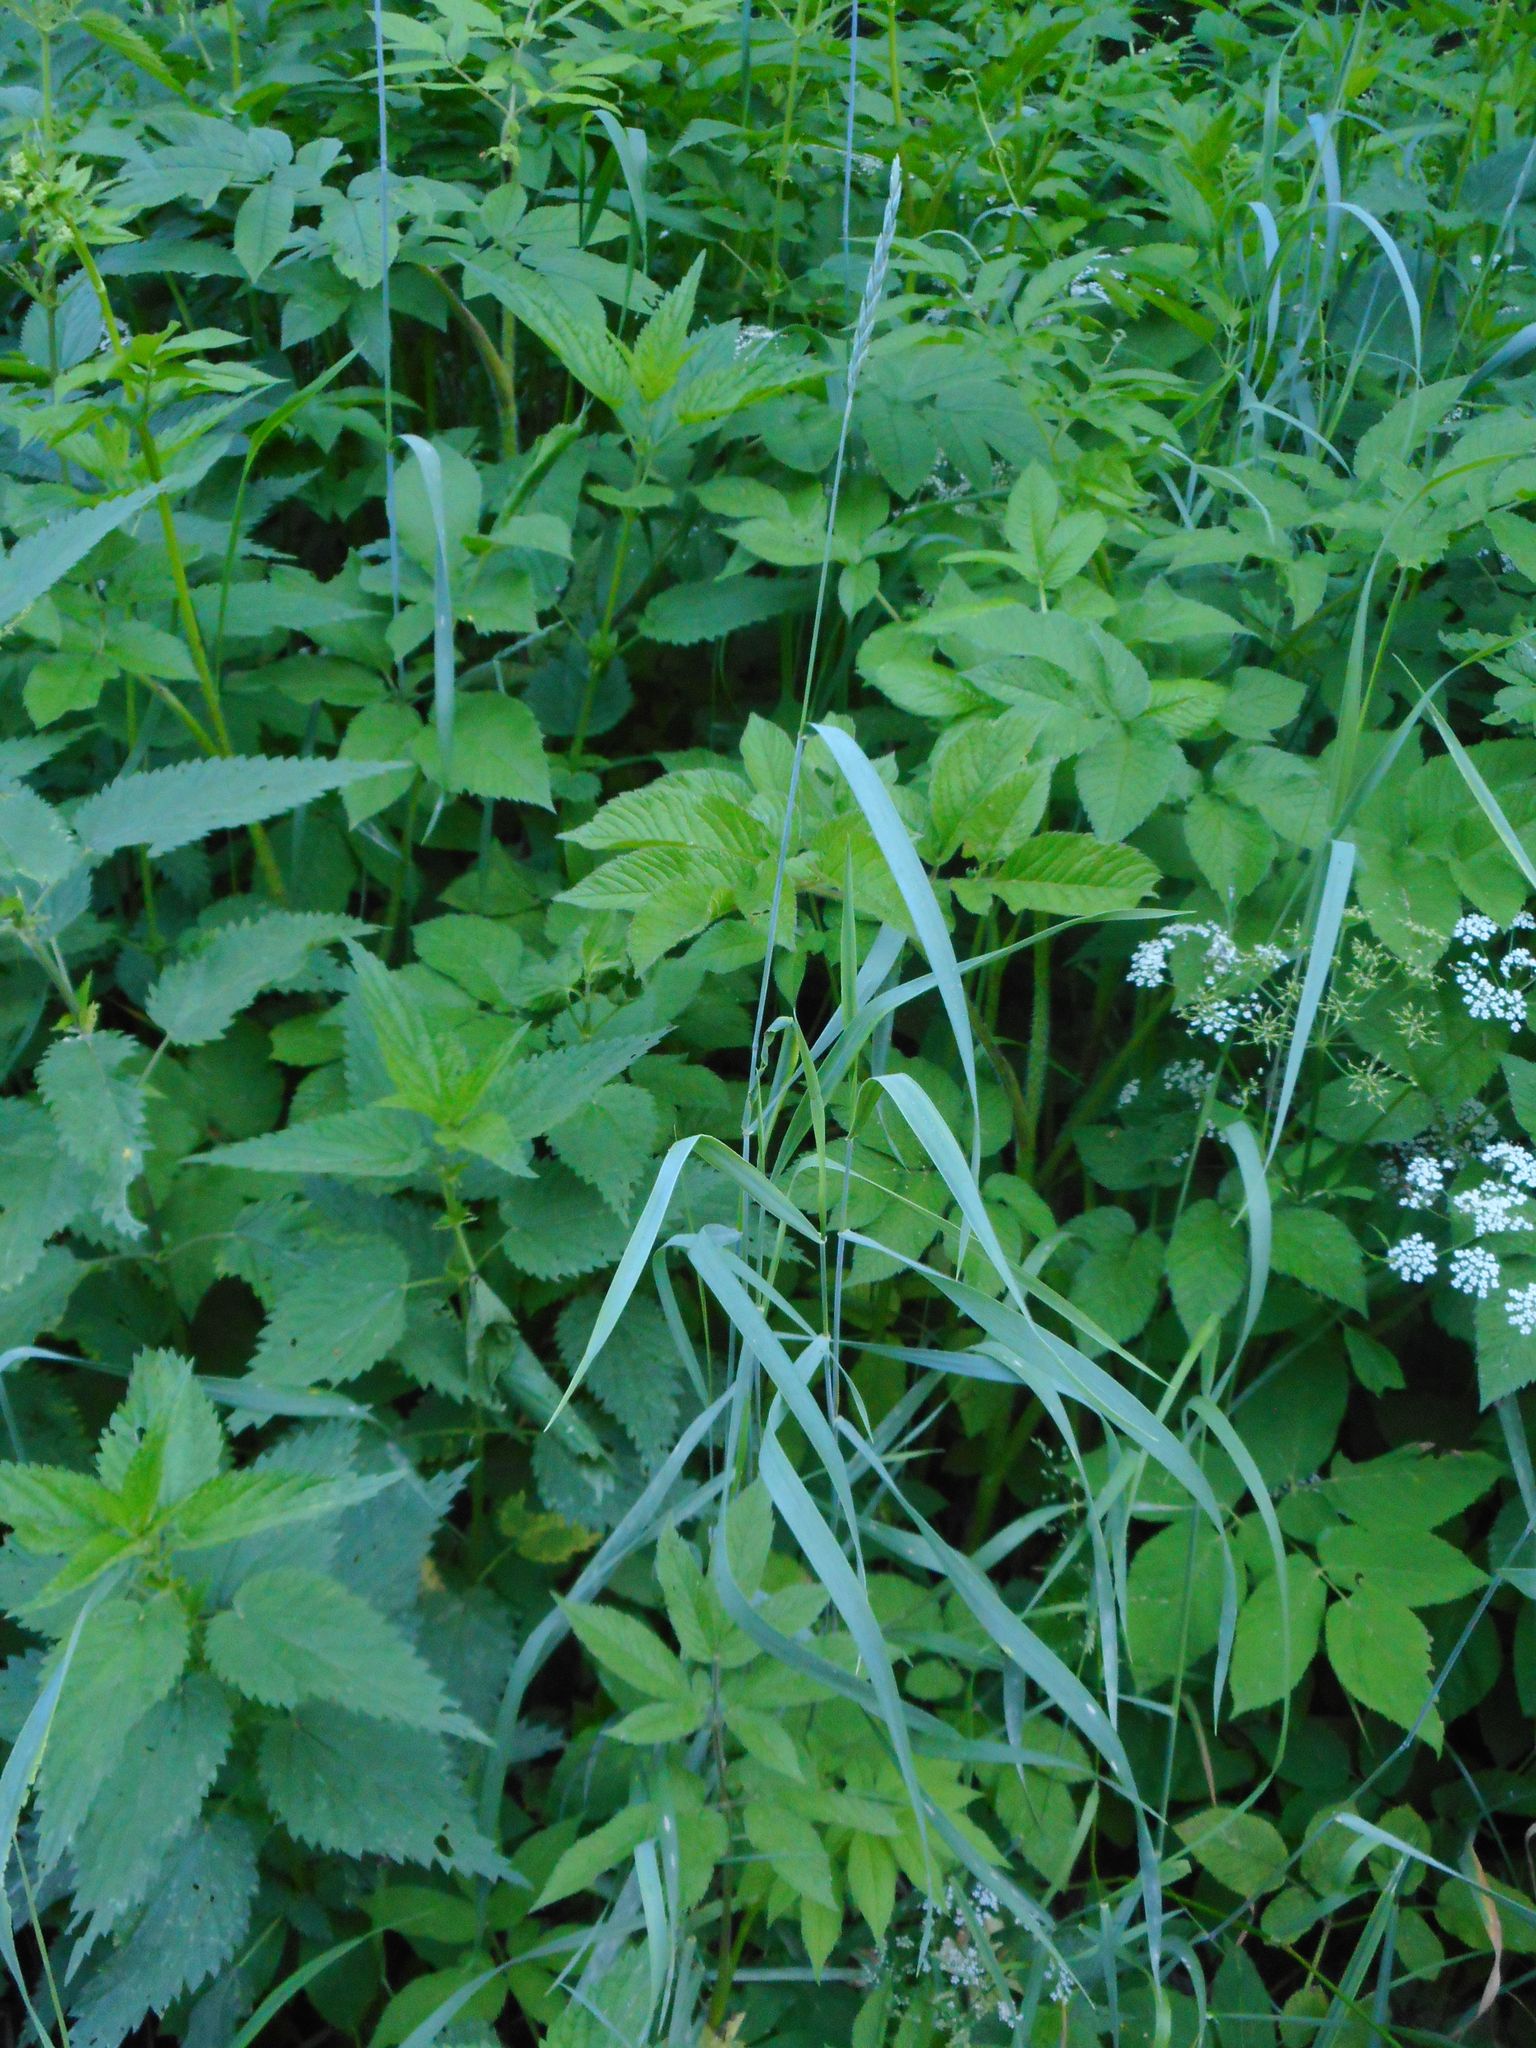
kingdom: Plantae
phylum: Tracheophyta
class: Liliopsida
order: Poales
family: Poaceae
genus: Elymus
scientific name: Elymus repens
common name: Quackgrass
